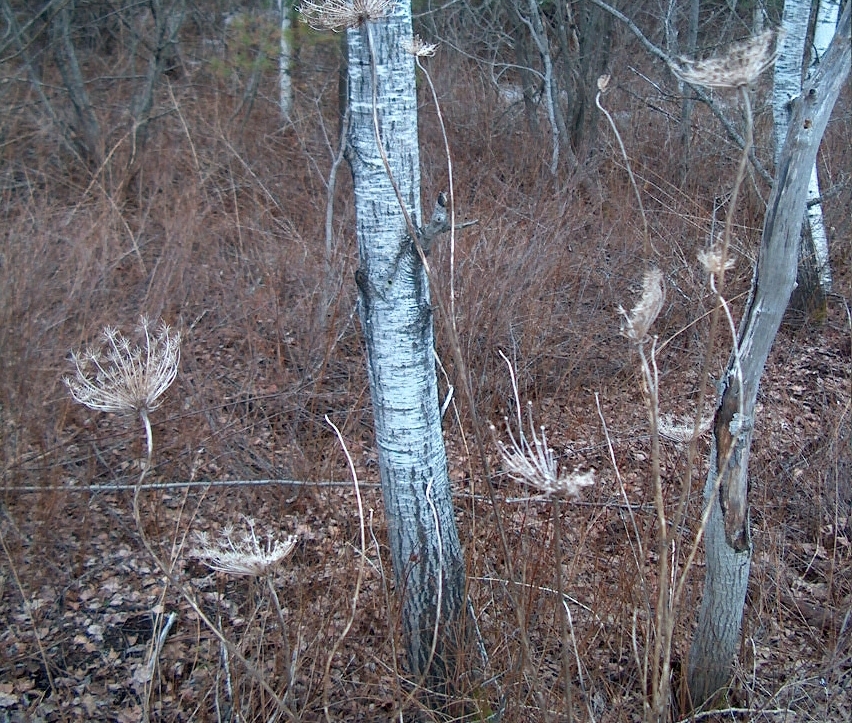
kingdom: Plantae
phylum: Tracheophyta
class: Magnoliopsida
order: Apiales
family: Apiaceae
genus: Daucus
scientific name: Daucus carota
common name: Wild carrot
